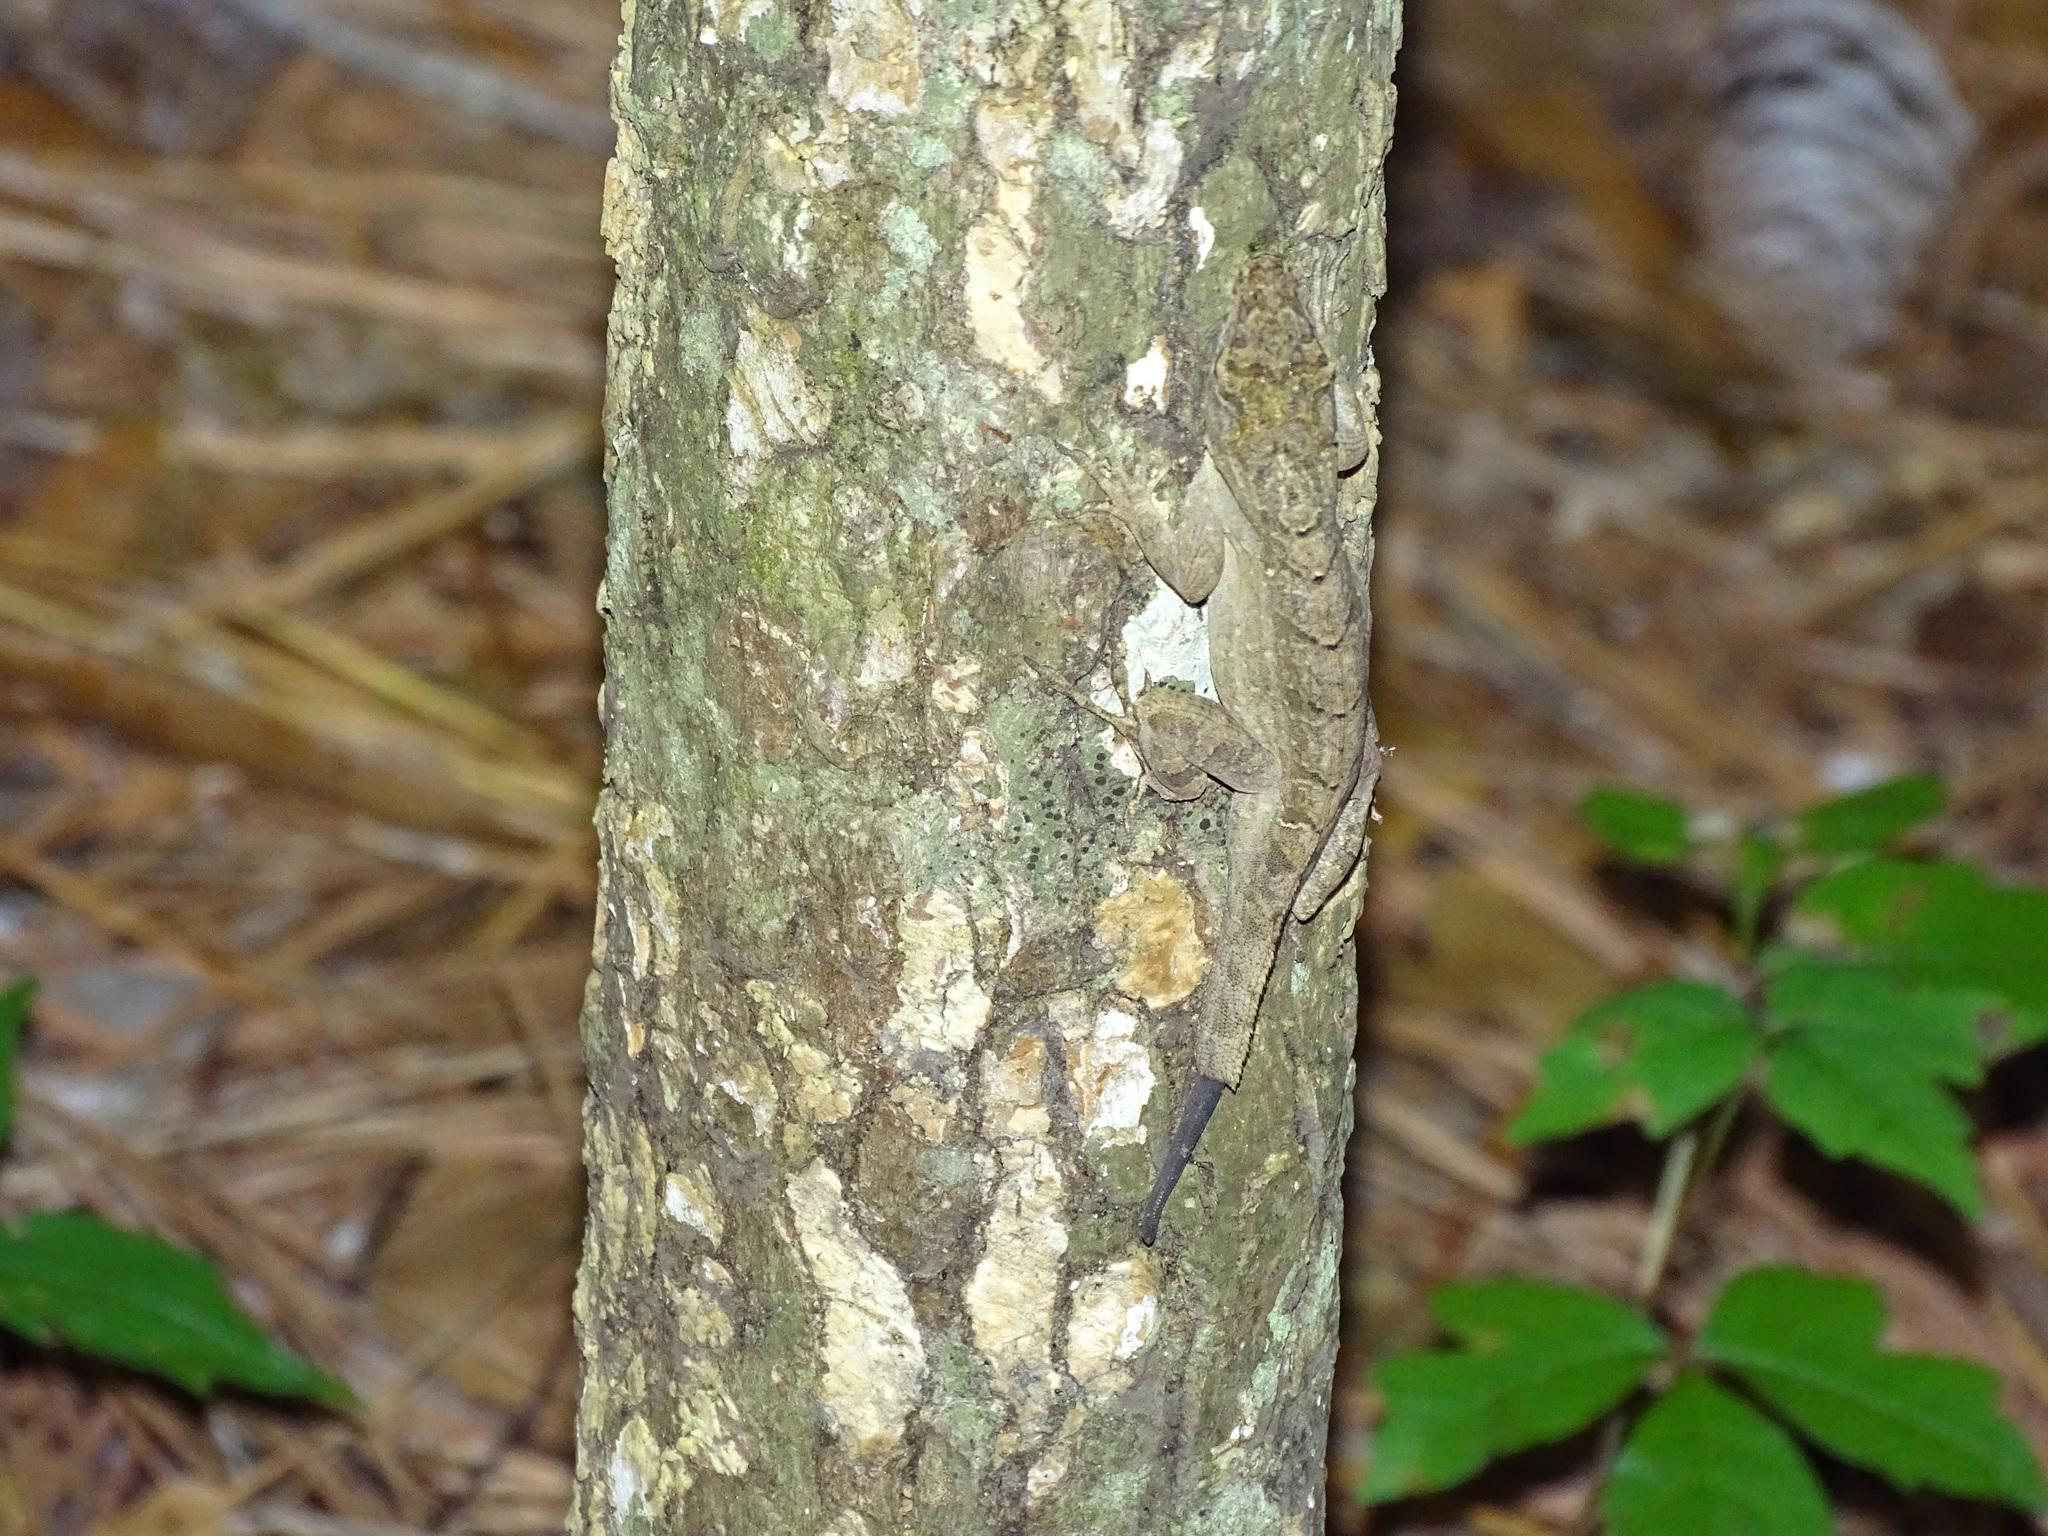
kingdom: Animalia
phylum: Chordata
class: Squamata
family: Dactyloidae
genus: Anolis
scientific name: Anolis sagrei
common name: Brown anole
